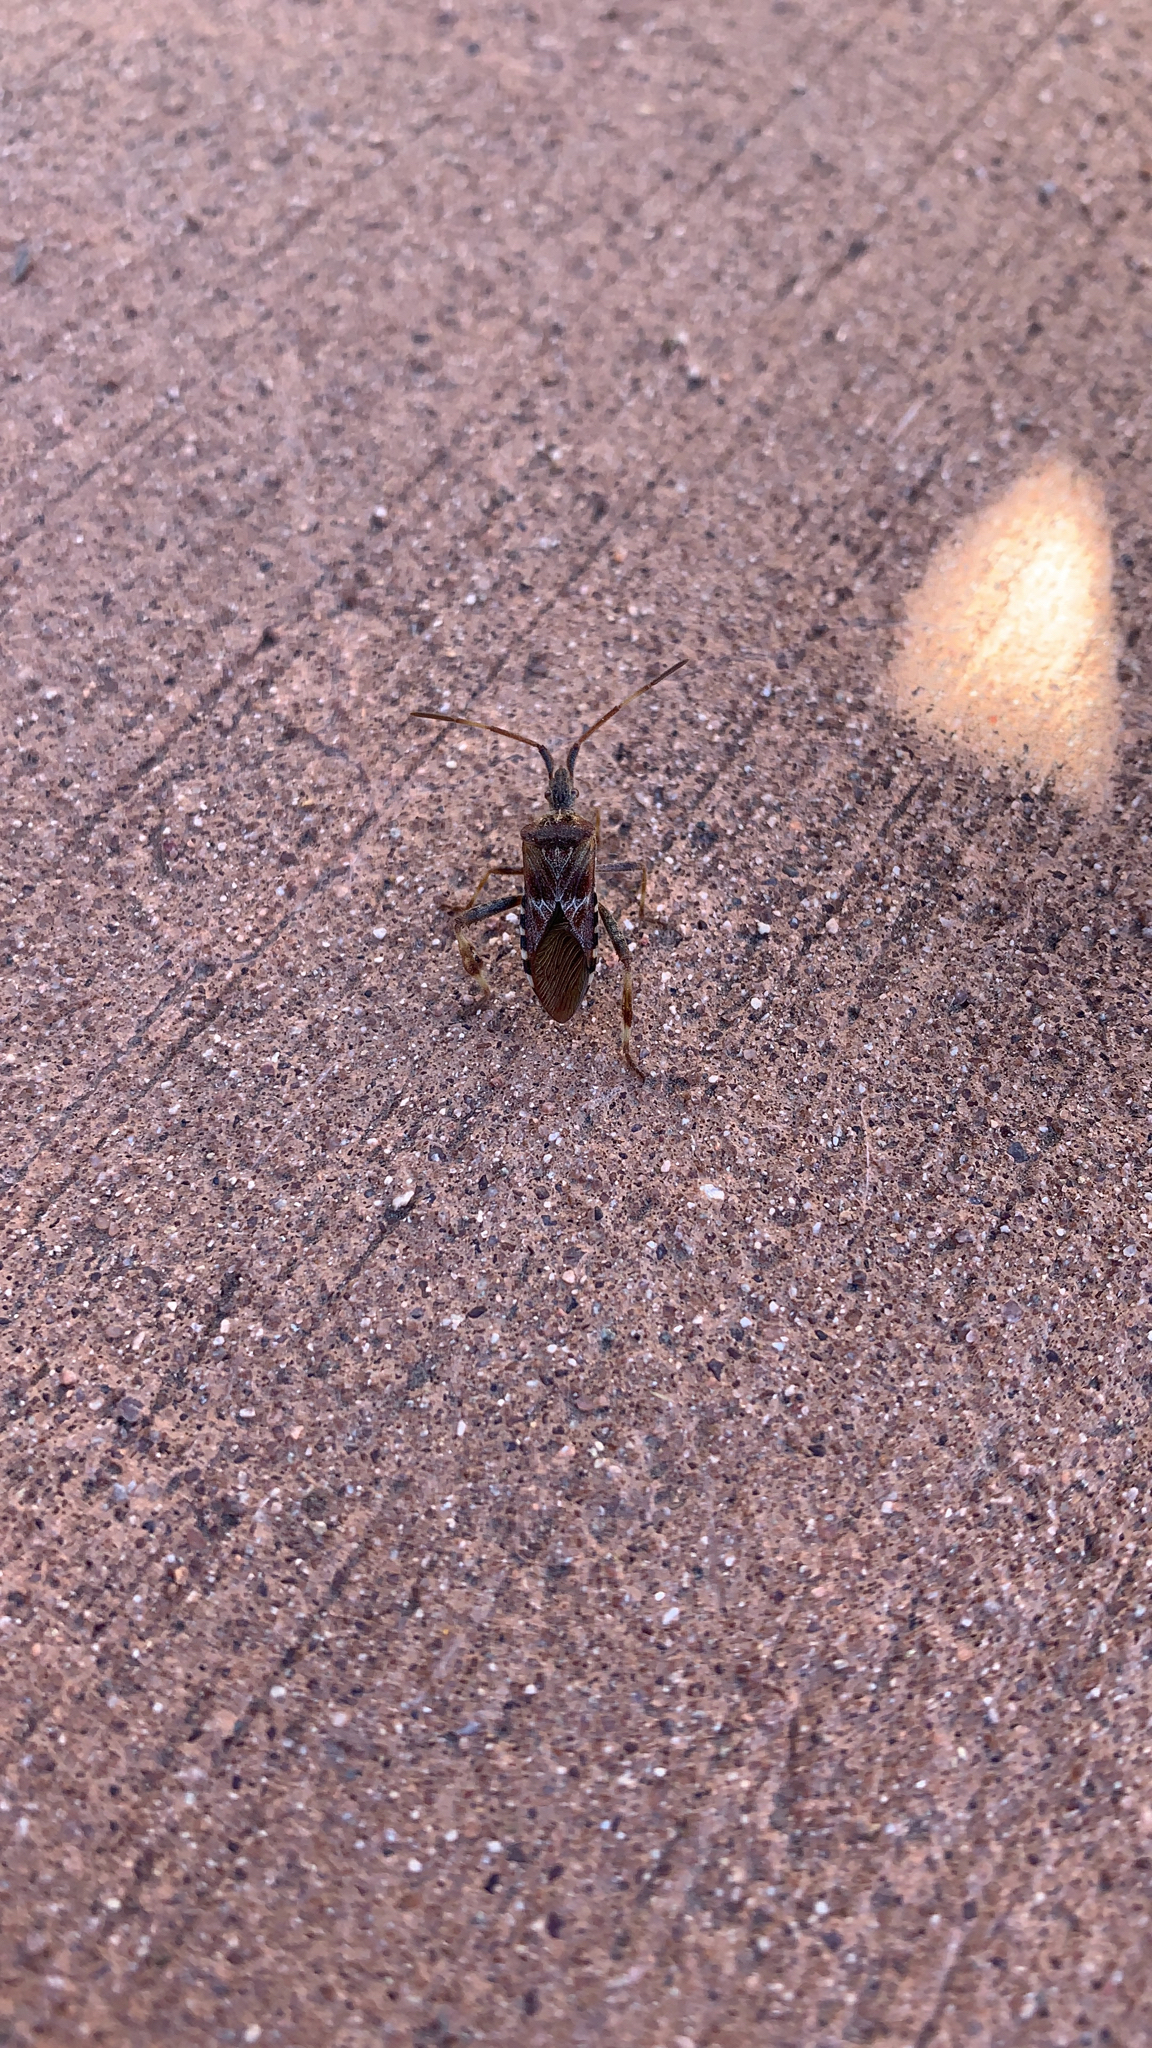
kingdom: Animalia
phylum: Arthropoda
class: Insecta
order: Hemiptera
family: Coreidae
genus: Leptoglossus
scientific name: Leptoglossus occidentalis
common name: Western conifer-seed bug
